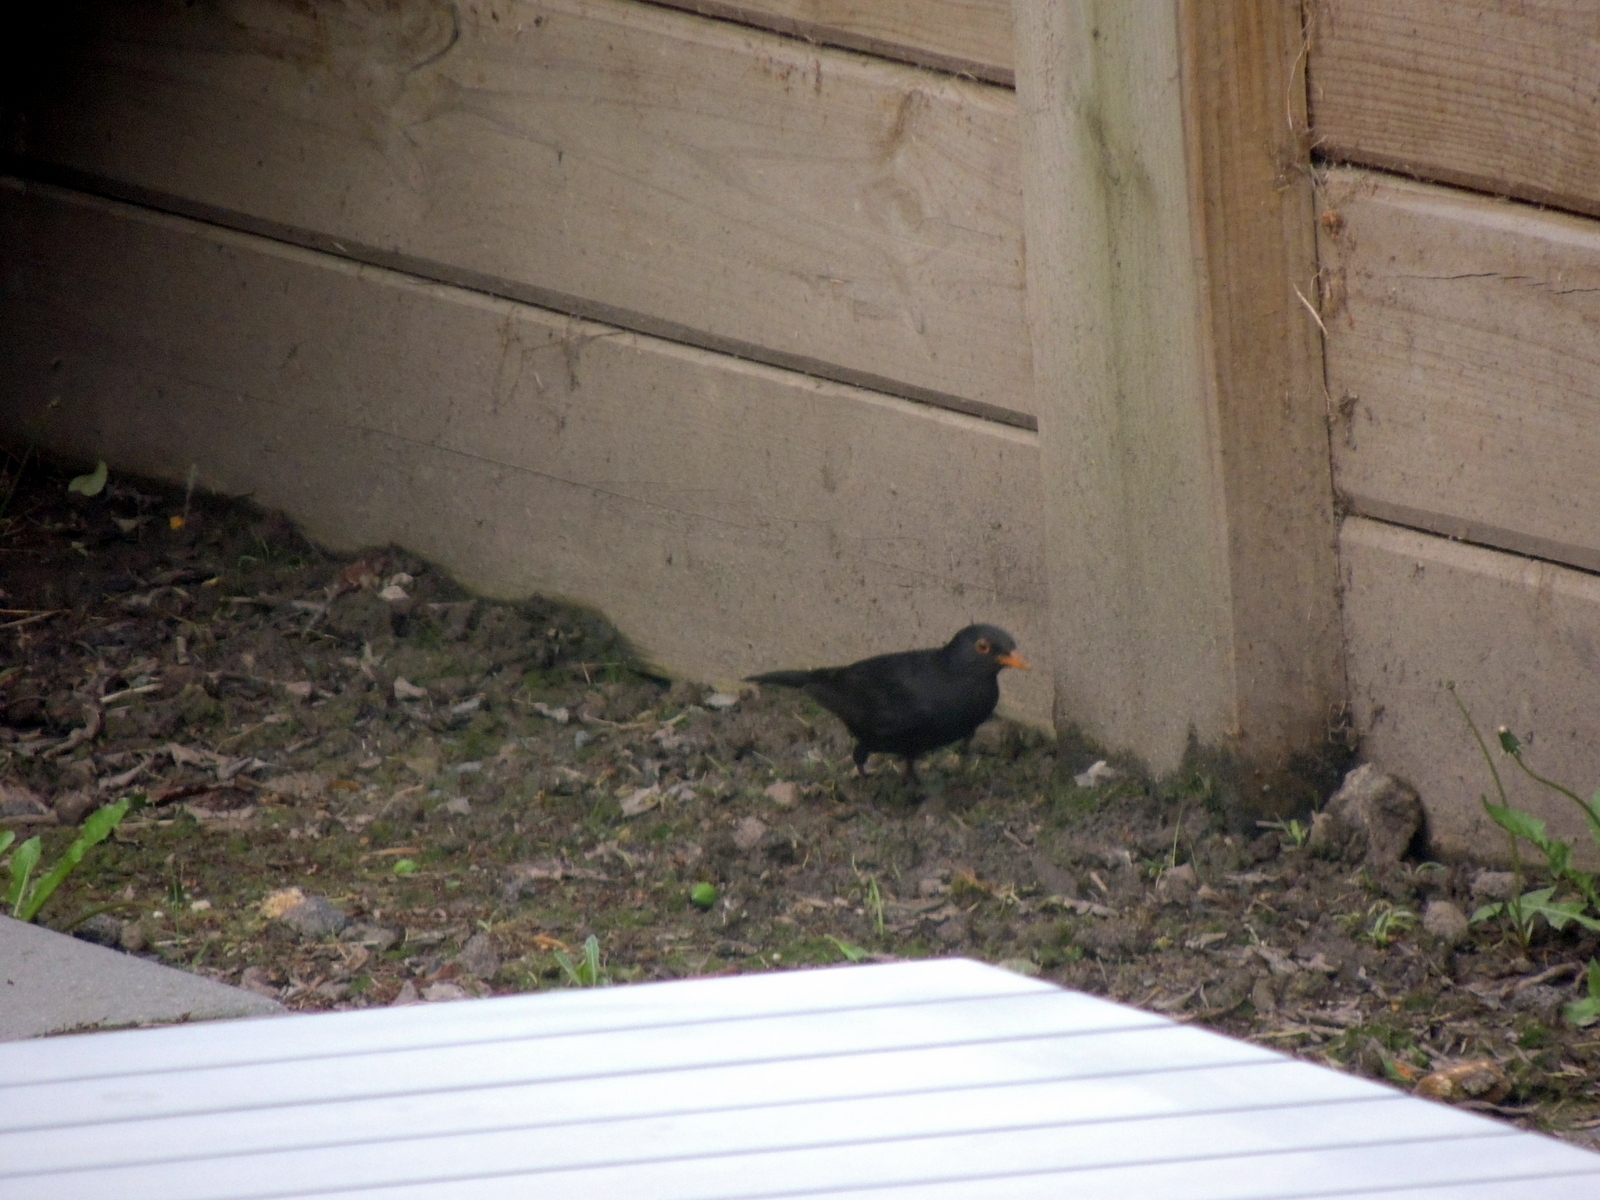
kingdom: Animalia
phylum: Chordata
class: Aves
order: Passeriformes
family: Turdidae
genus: Turdus
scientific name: Turdus merula
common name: Common blackbird
